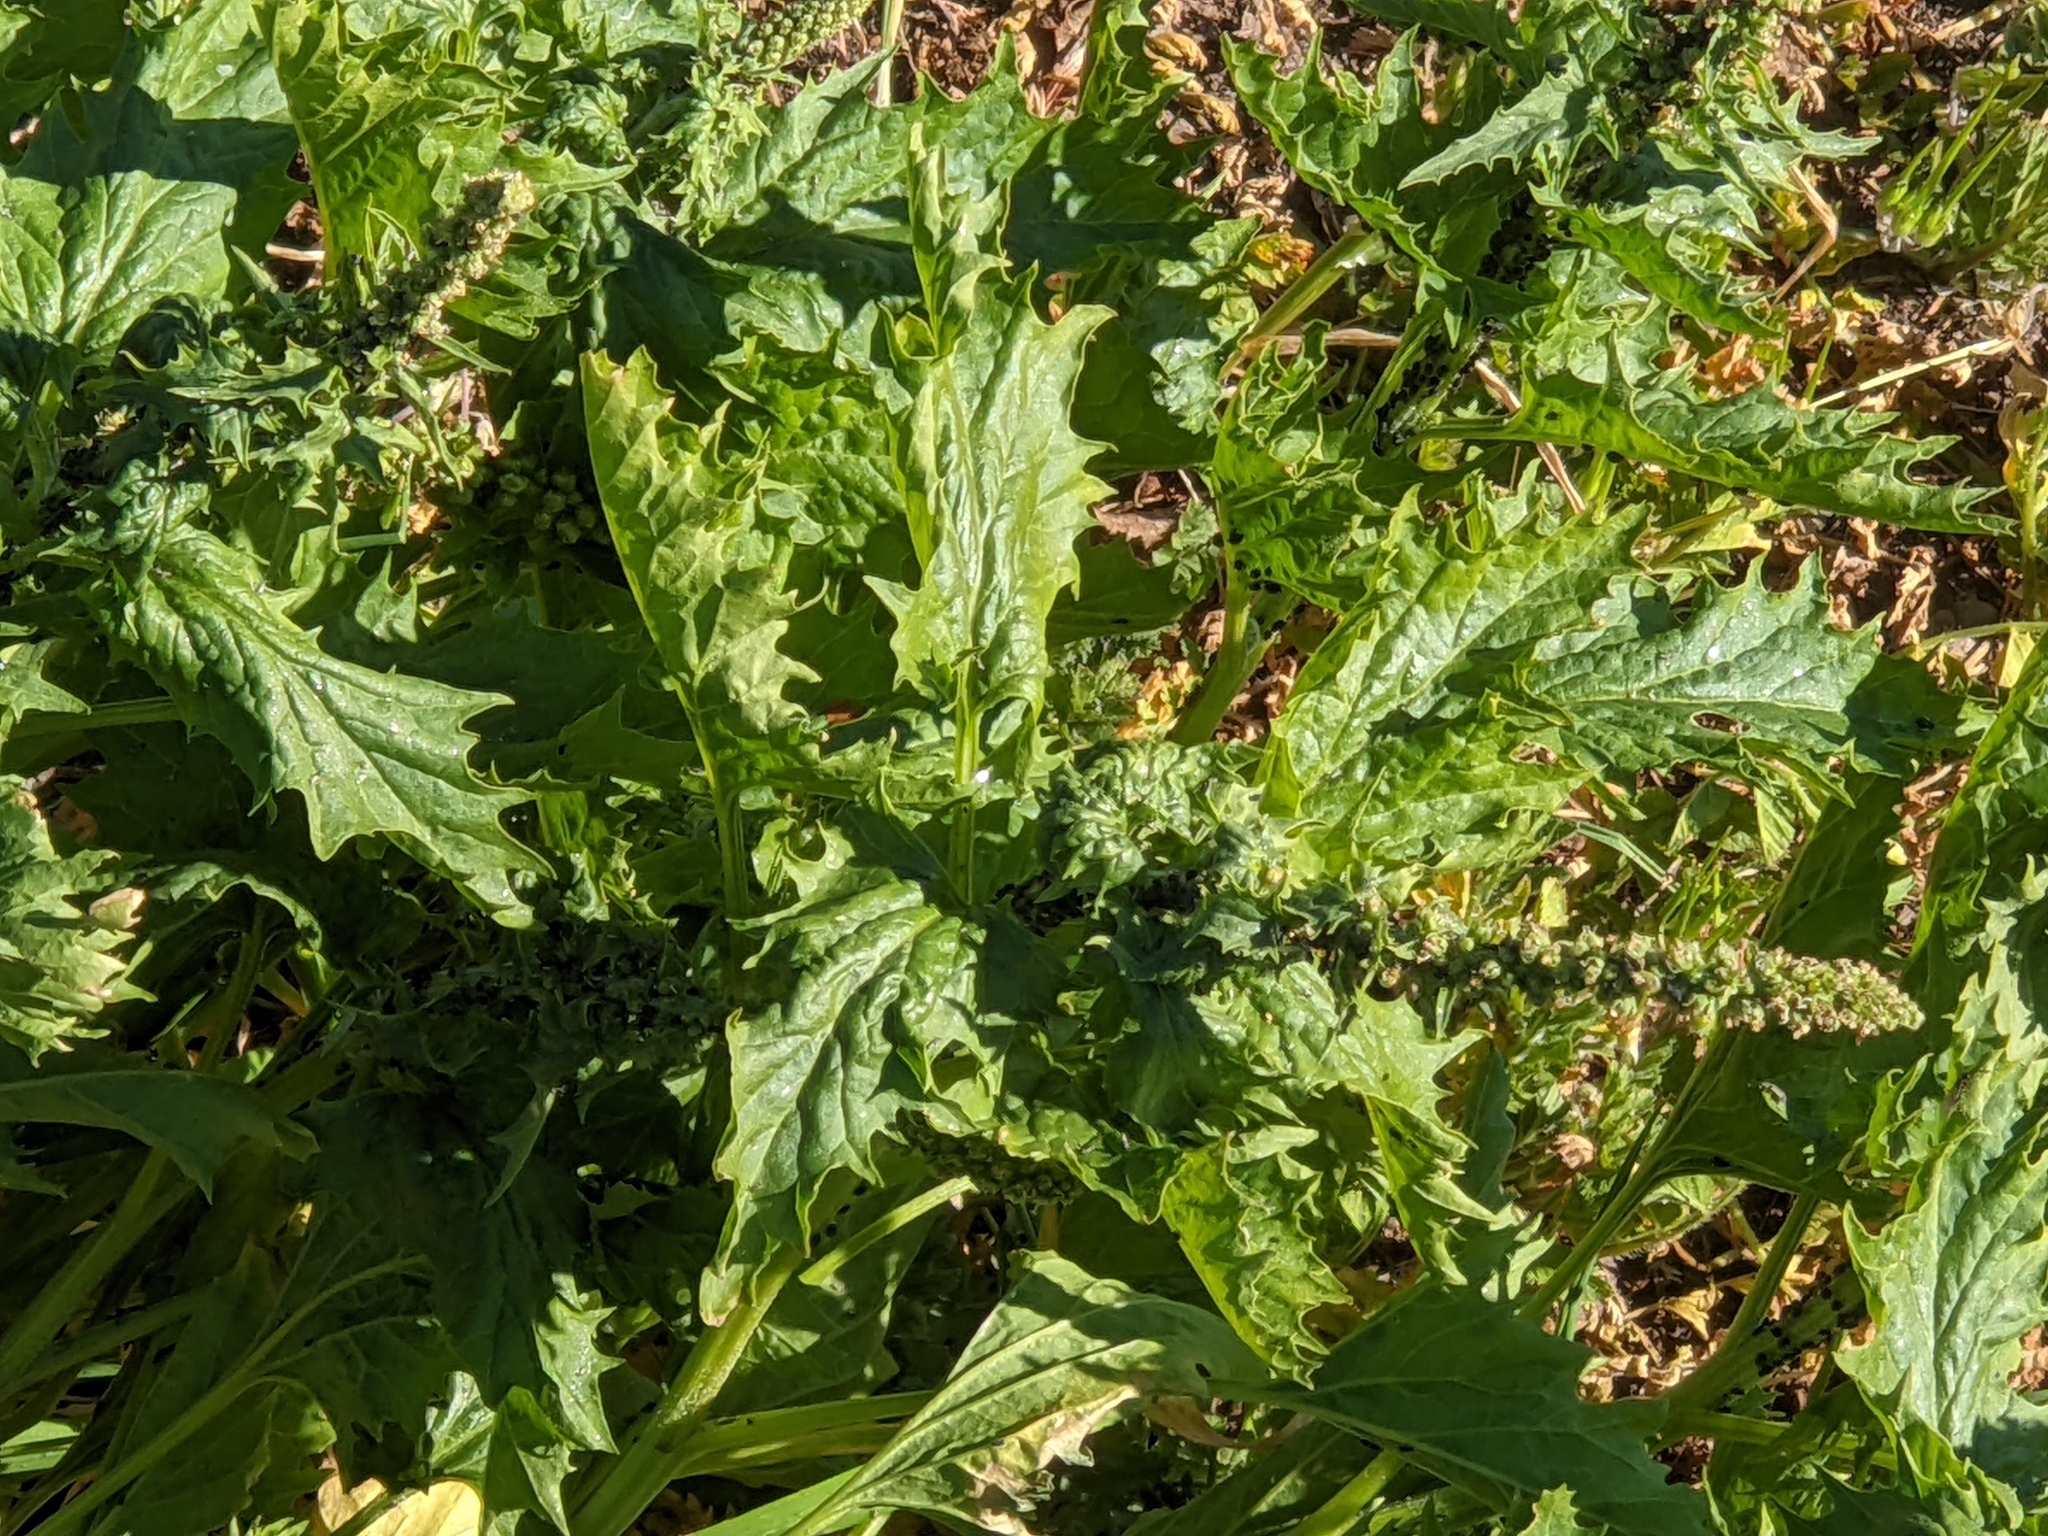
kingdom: Plantae
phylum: Tracheophyta
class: Magnoliopsida
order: Caryophyllales
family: Amaranthaceae
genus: Blitum
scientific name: Blitum californicum
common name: California goosefoot
